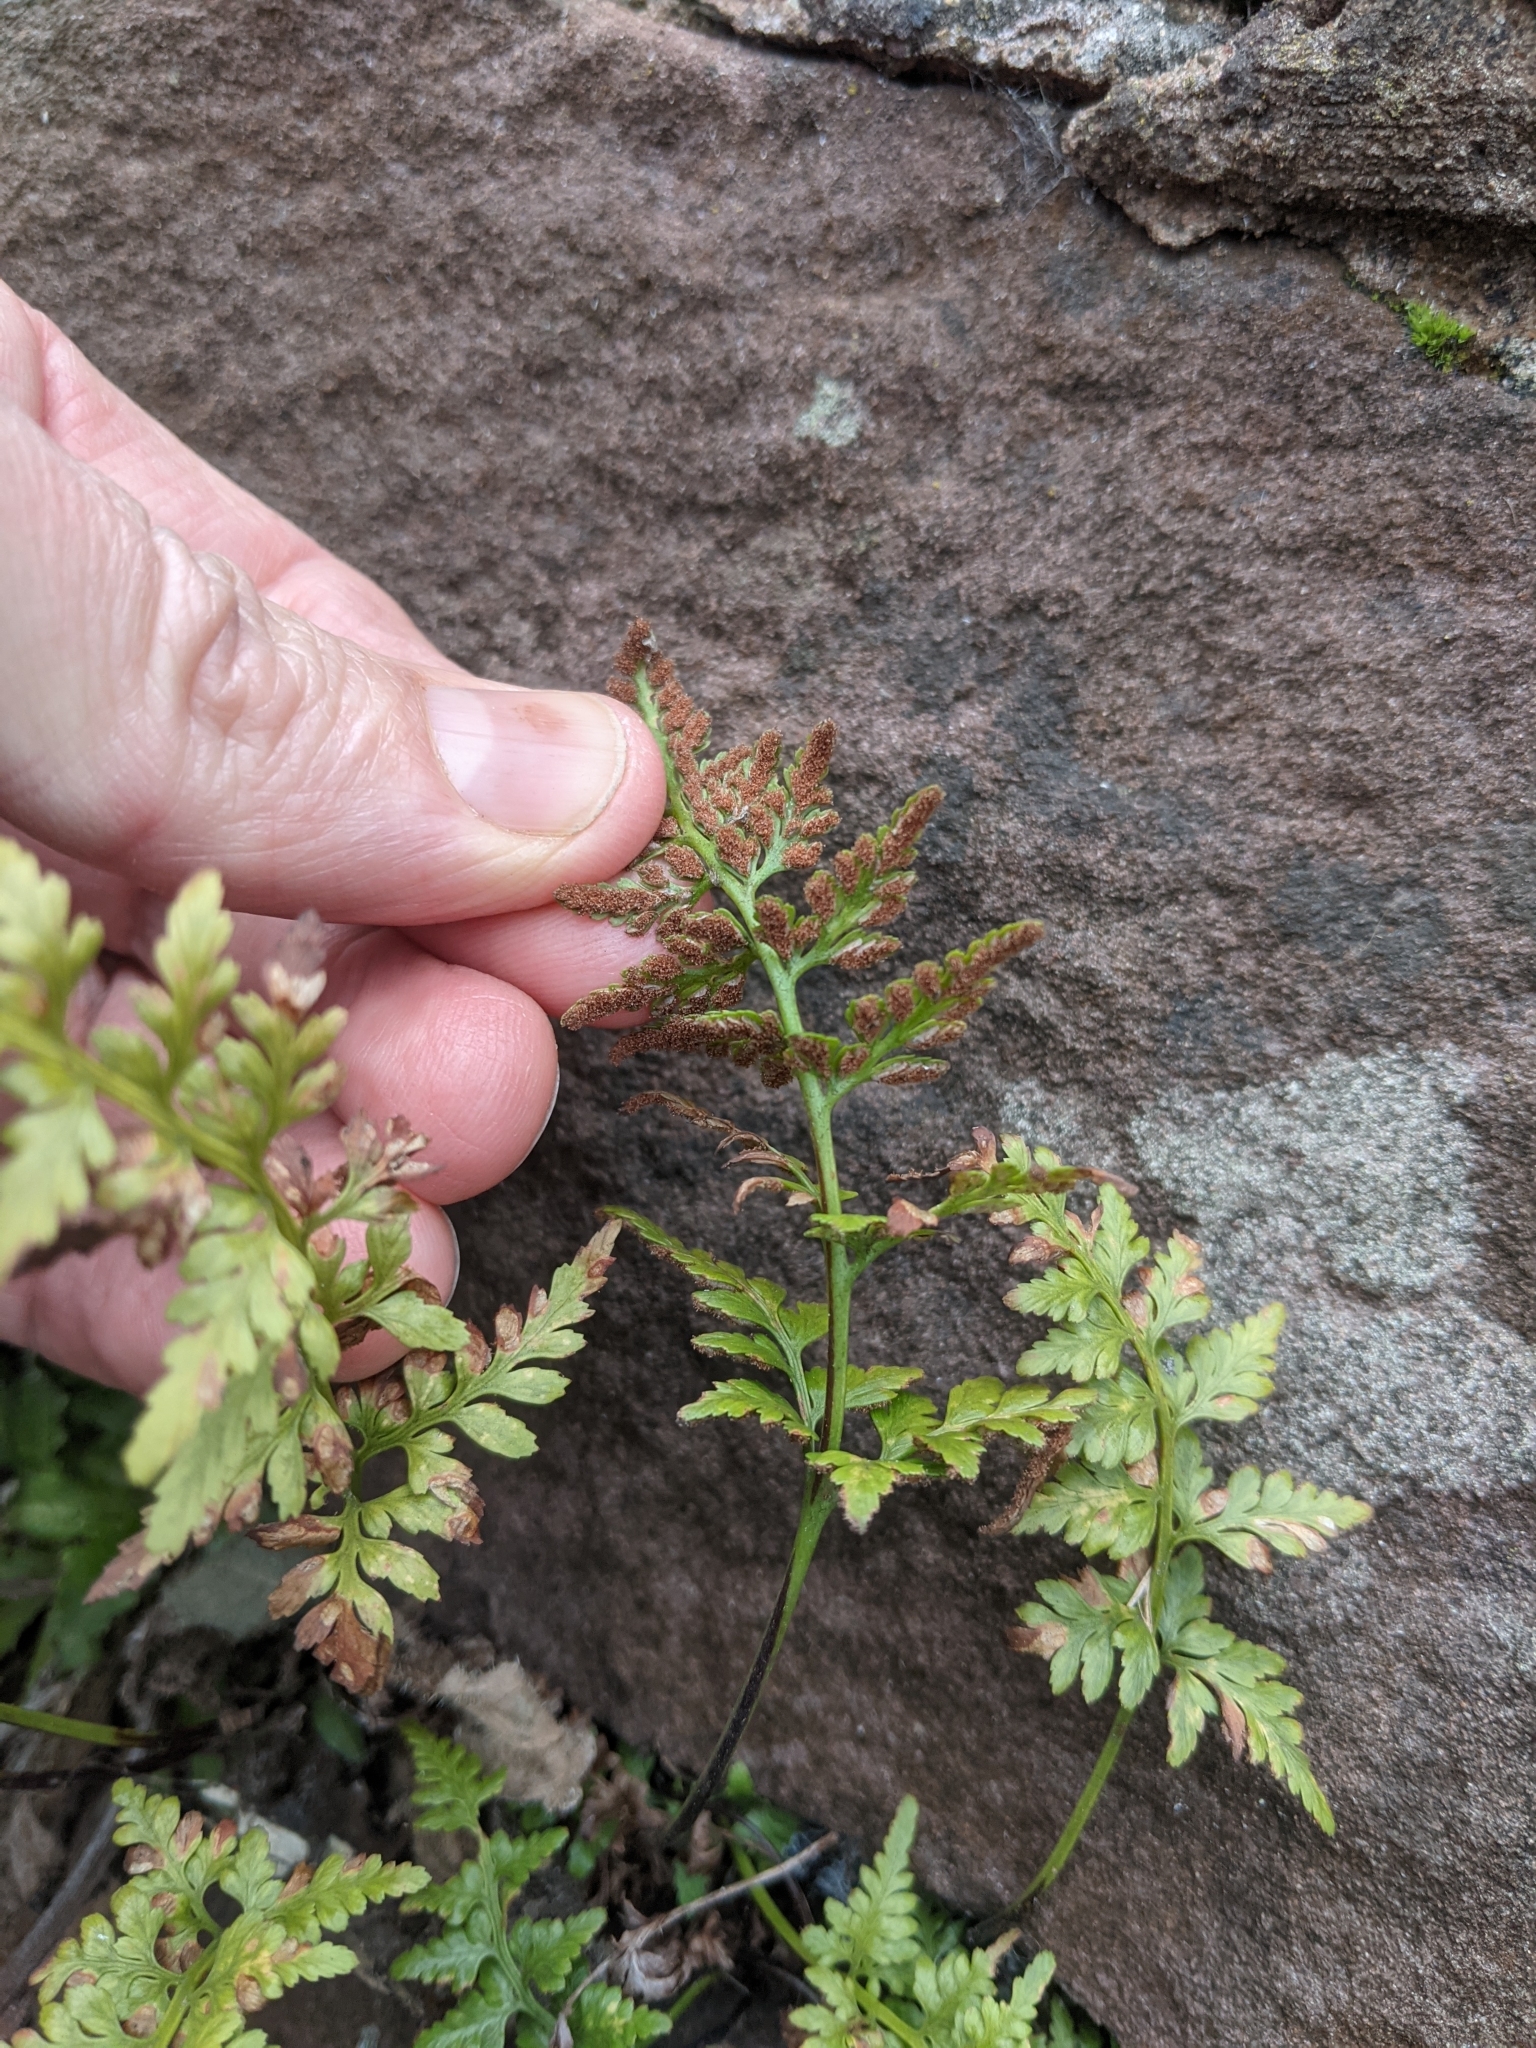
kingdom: Plantae
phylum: Tracheophyta
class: Polypodiopsida
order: Polypodiales
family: Aspleniaceae
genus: Asplenium
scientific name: Asplenium adiantum-nigrum
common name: Black spleenwort
